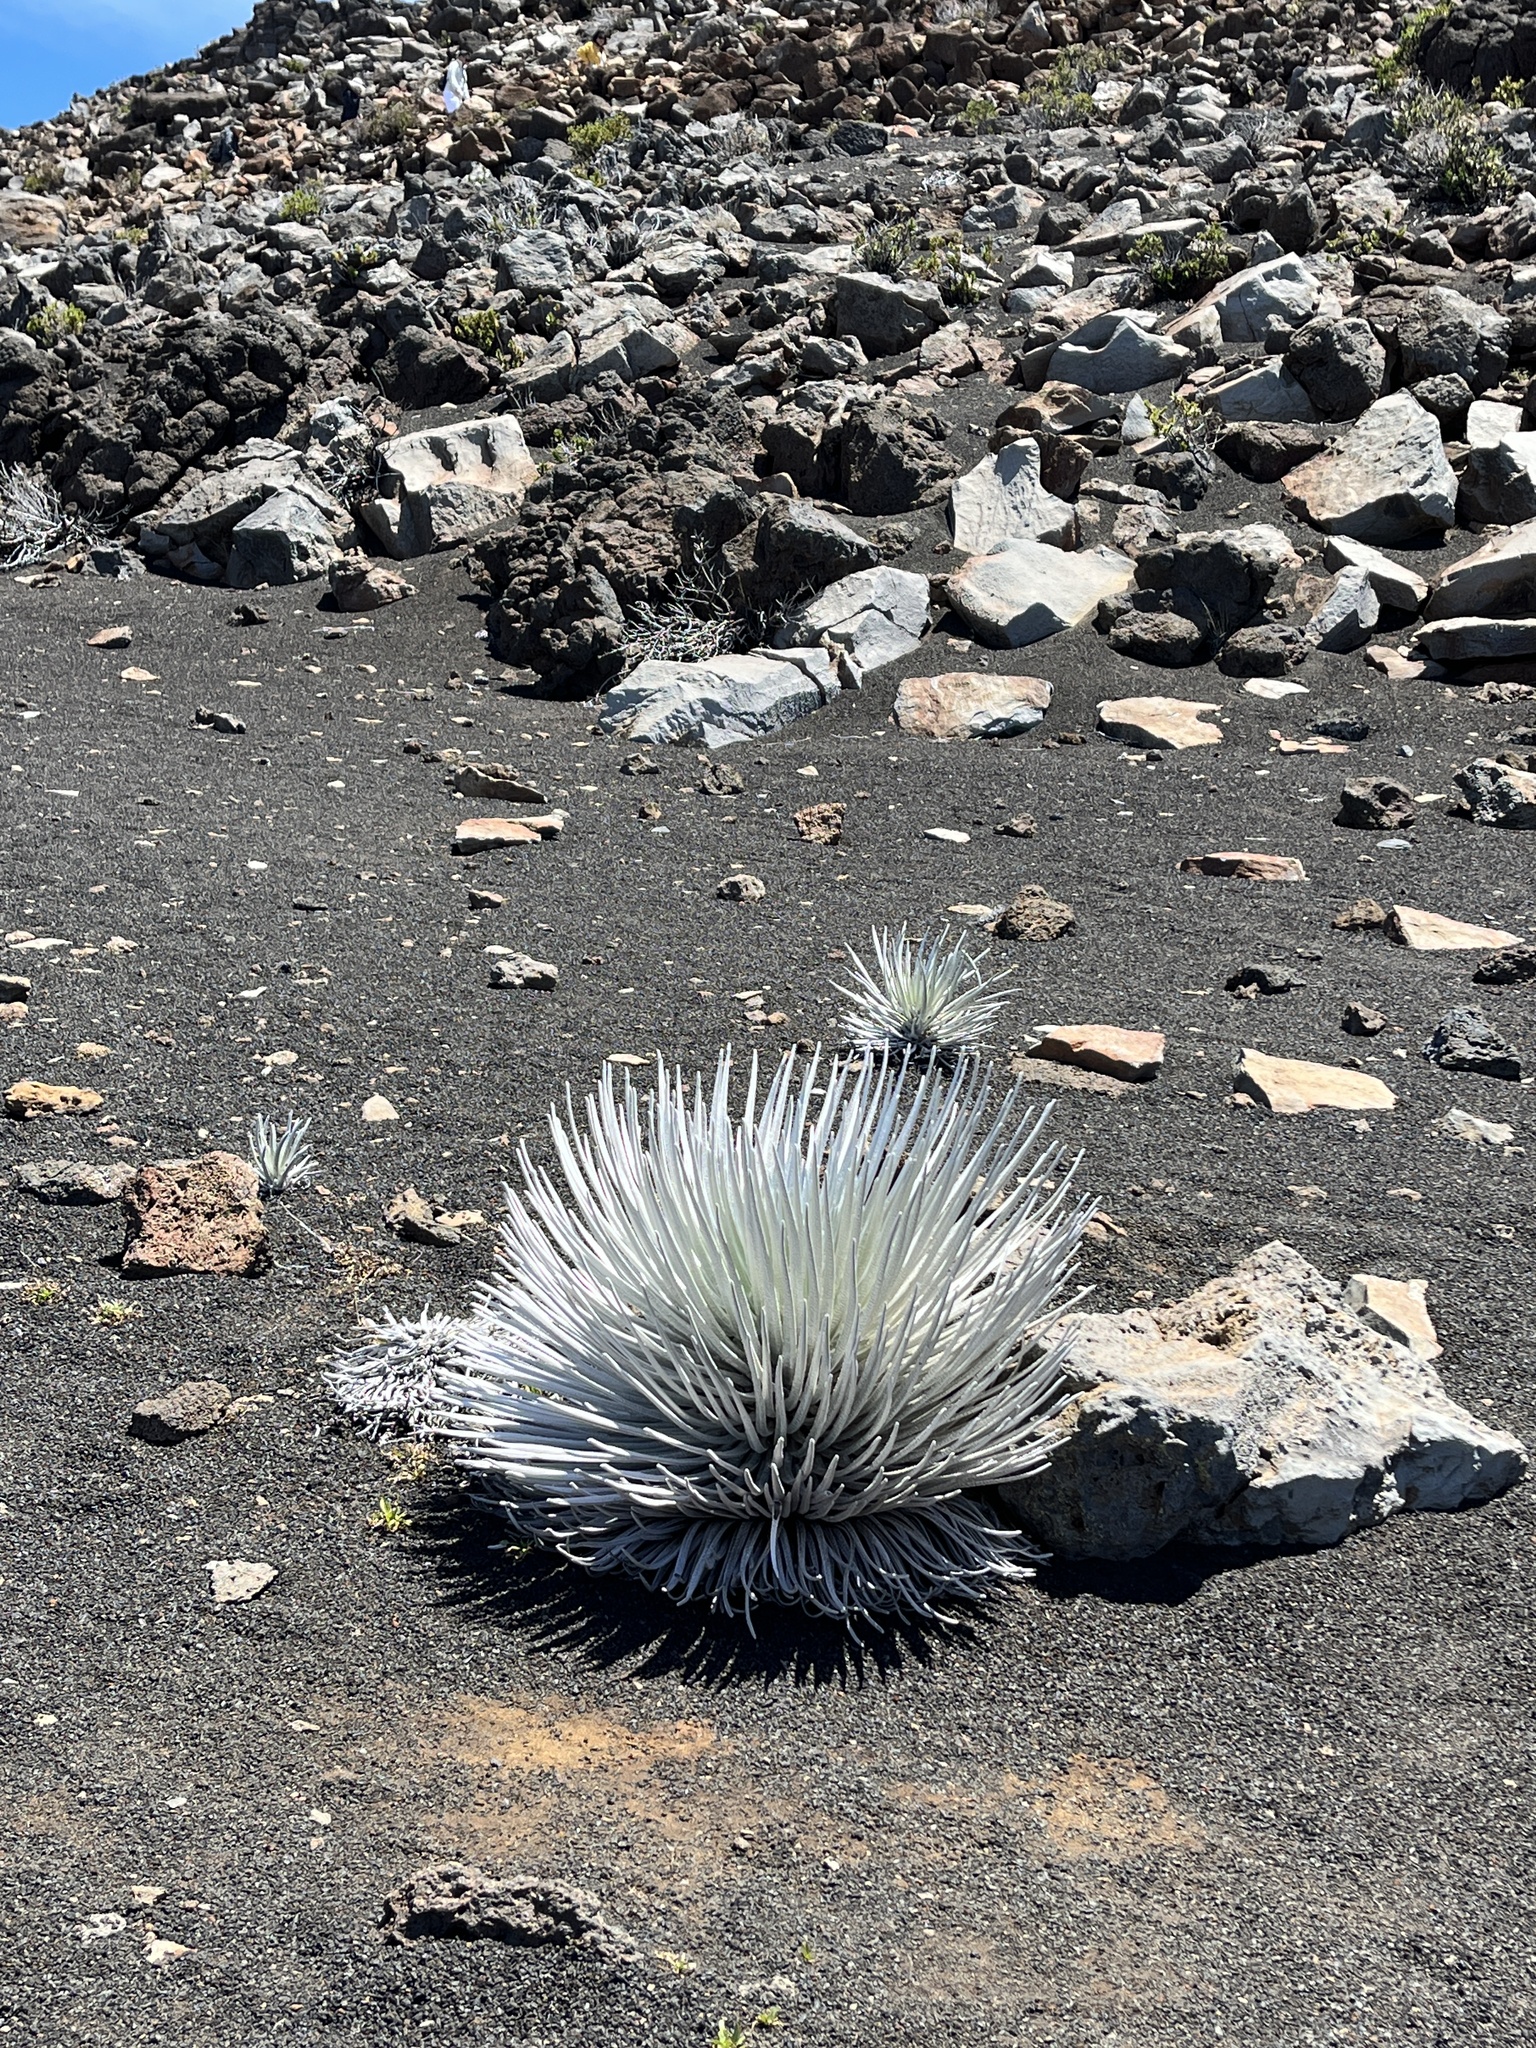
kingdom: Plantae
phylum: Tracheophyta
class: Magnoliopsida
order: Asterales
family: Asteraceae
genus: Argyroxiphium
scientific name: Argyroxiphium sandwicense
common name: Silversword
